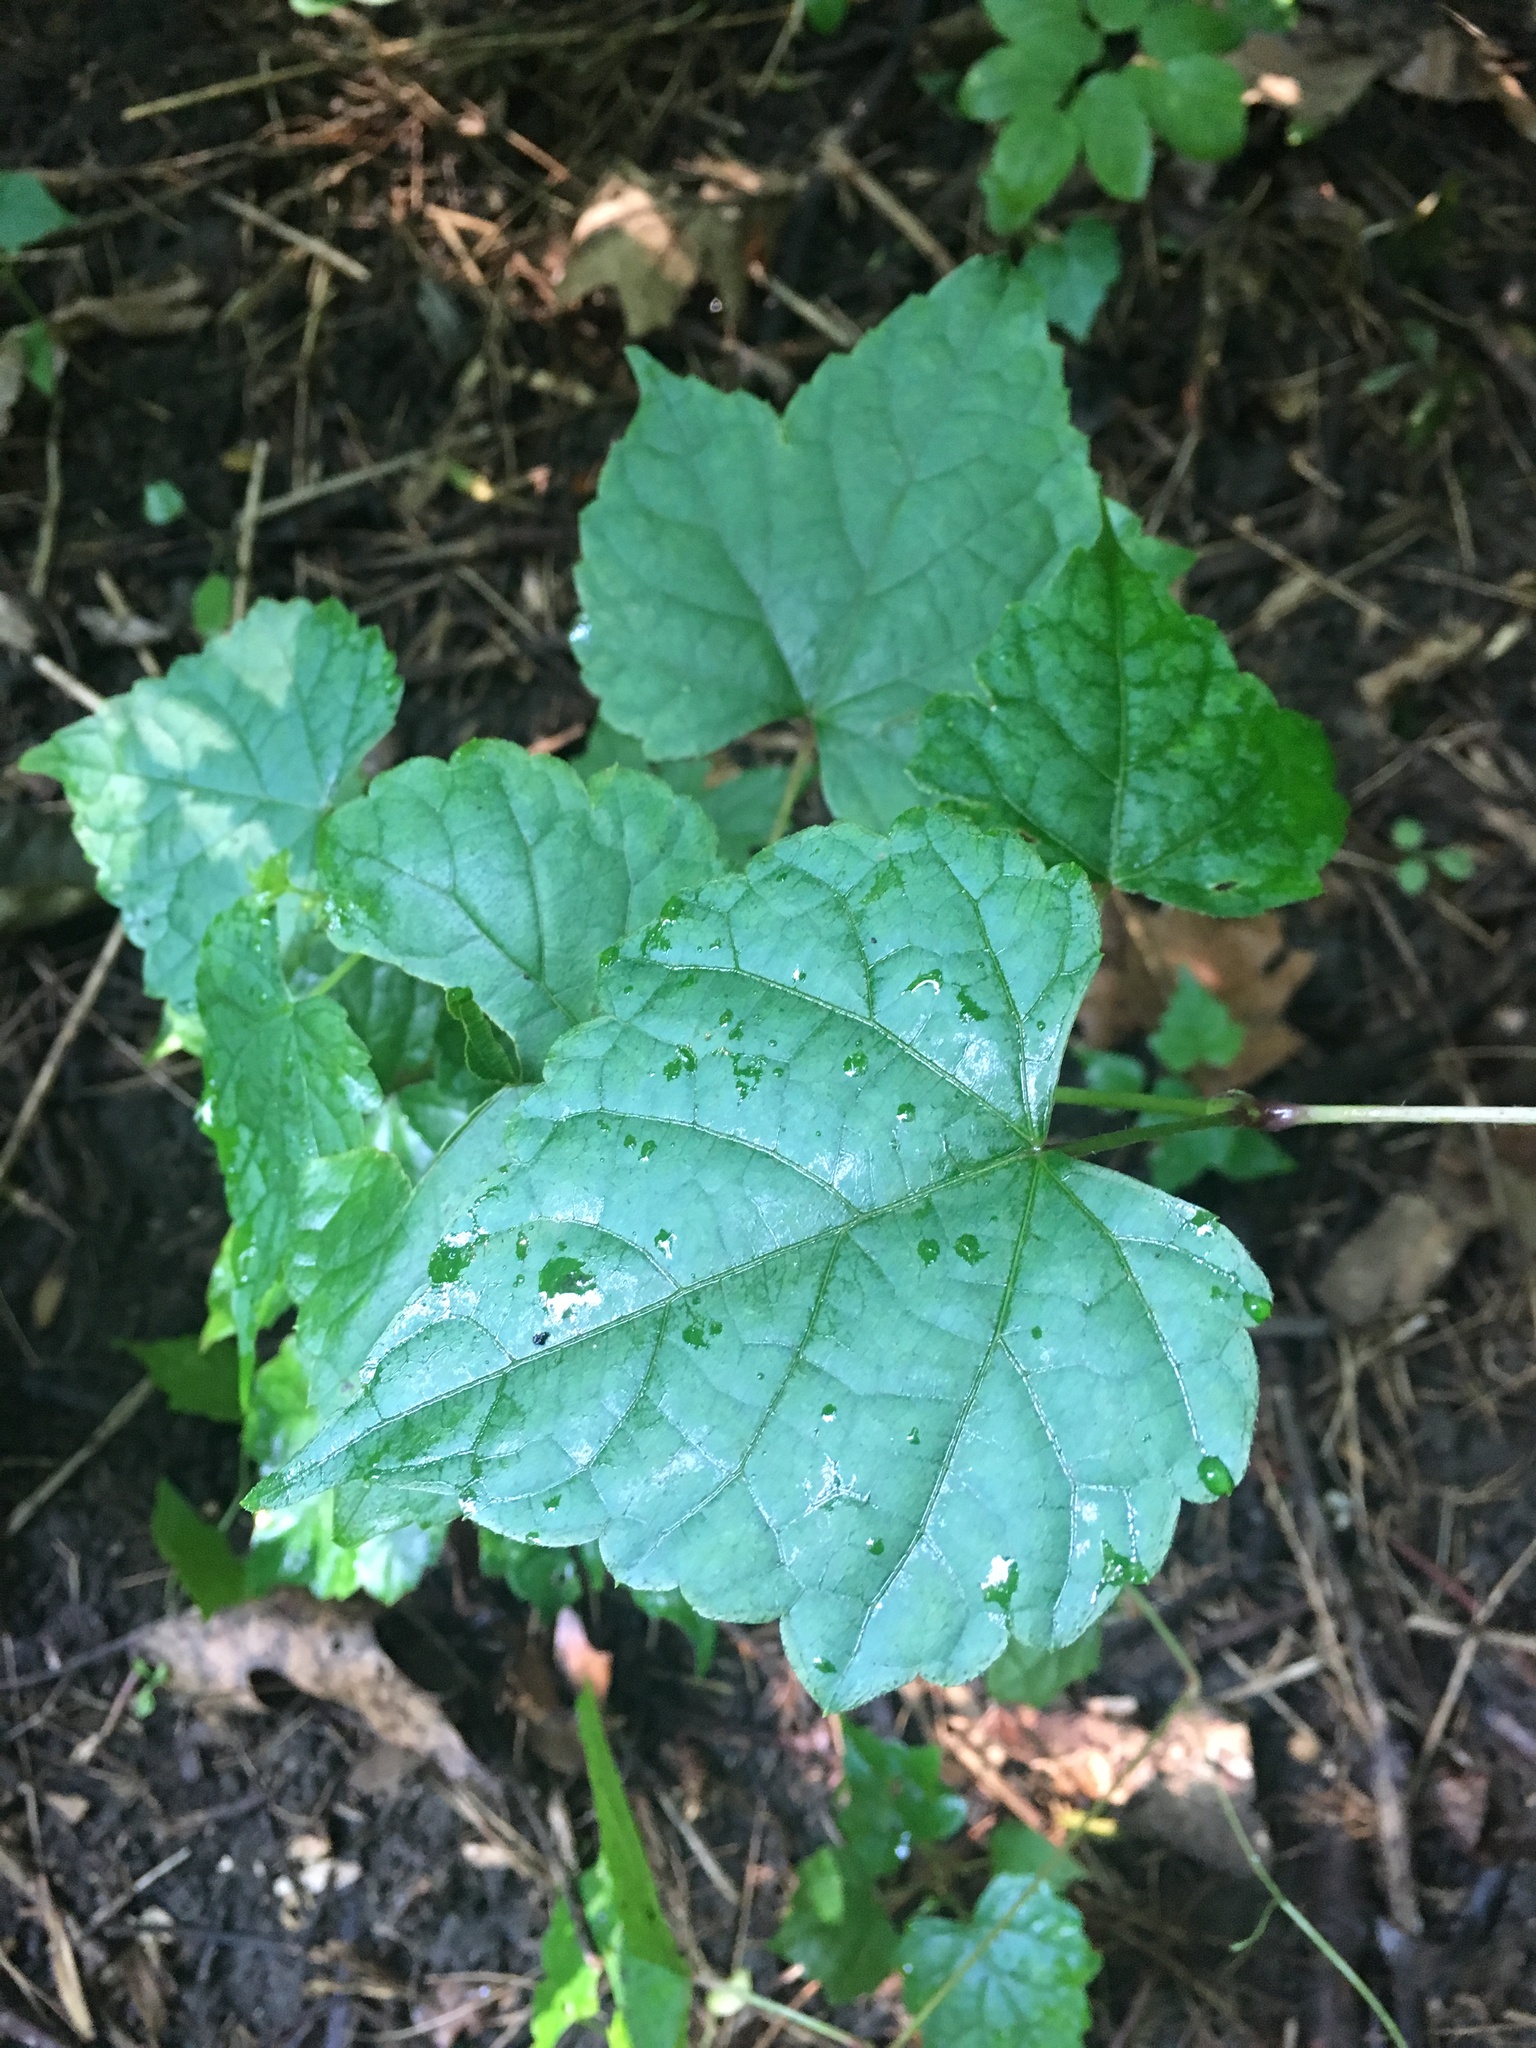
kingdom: Plantae
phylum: Tracheophyta
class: Magnoliopsida
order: Vitales
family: Vitaceae
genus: Ampelopsis
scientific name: Ampelopsis glandulosa
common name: Amur peppervine
